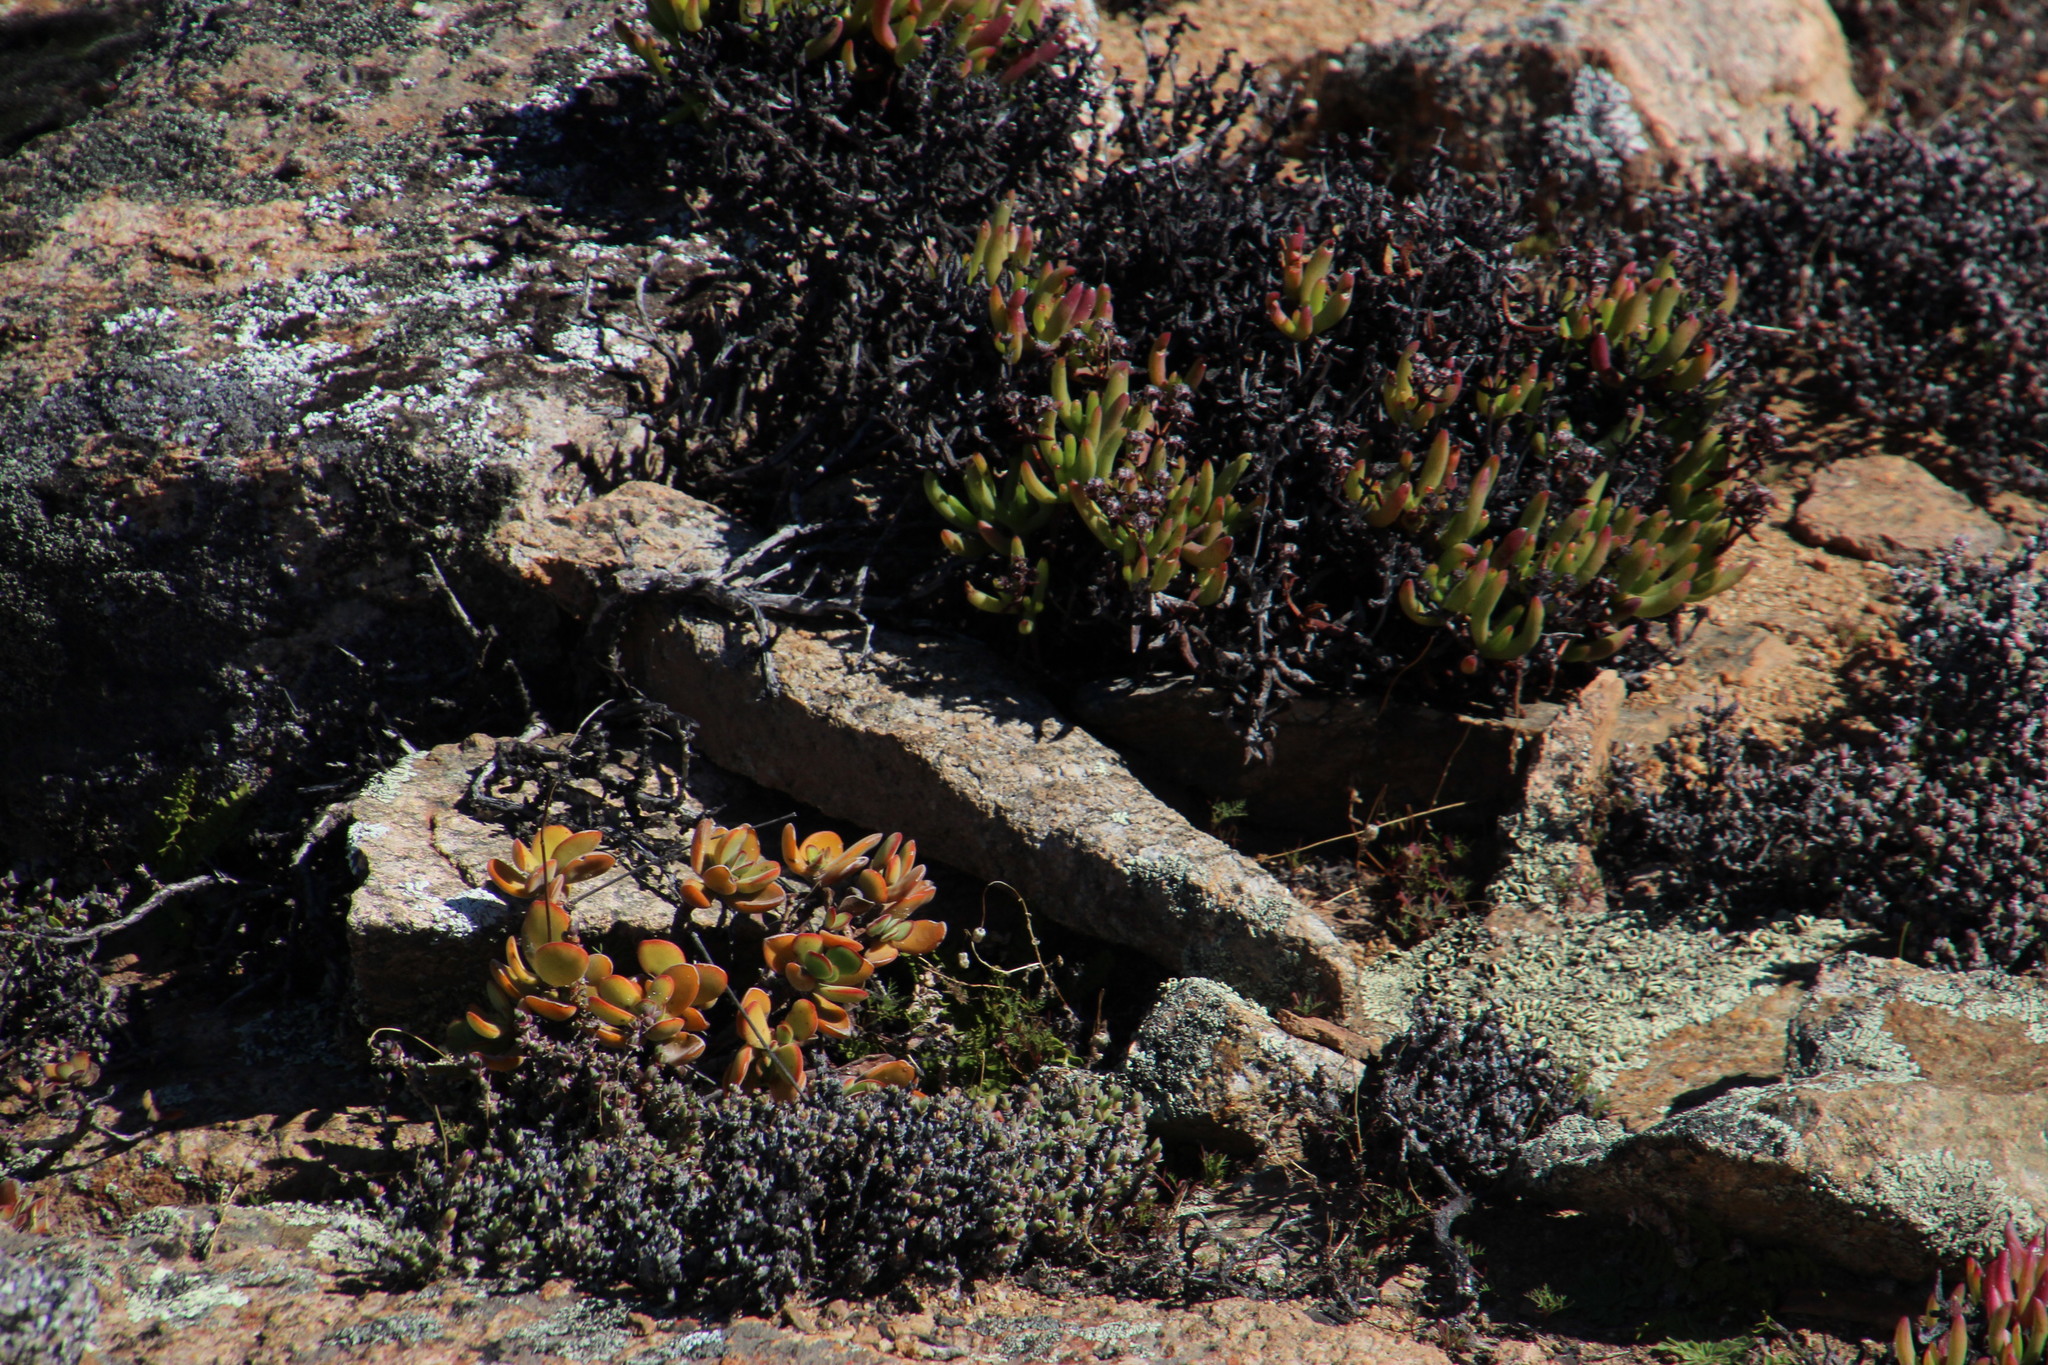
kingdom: Plantae
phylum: Tracheophyta
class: Magnoliopsida
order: Saxifragales
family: Crassulaceae
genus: Crassula
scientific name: Crassula atropurpurea
